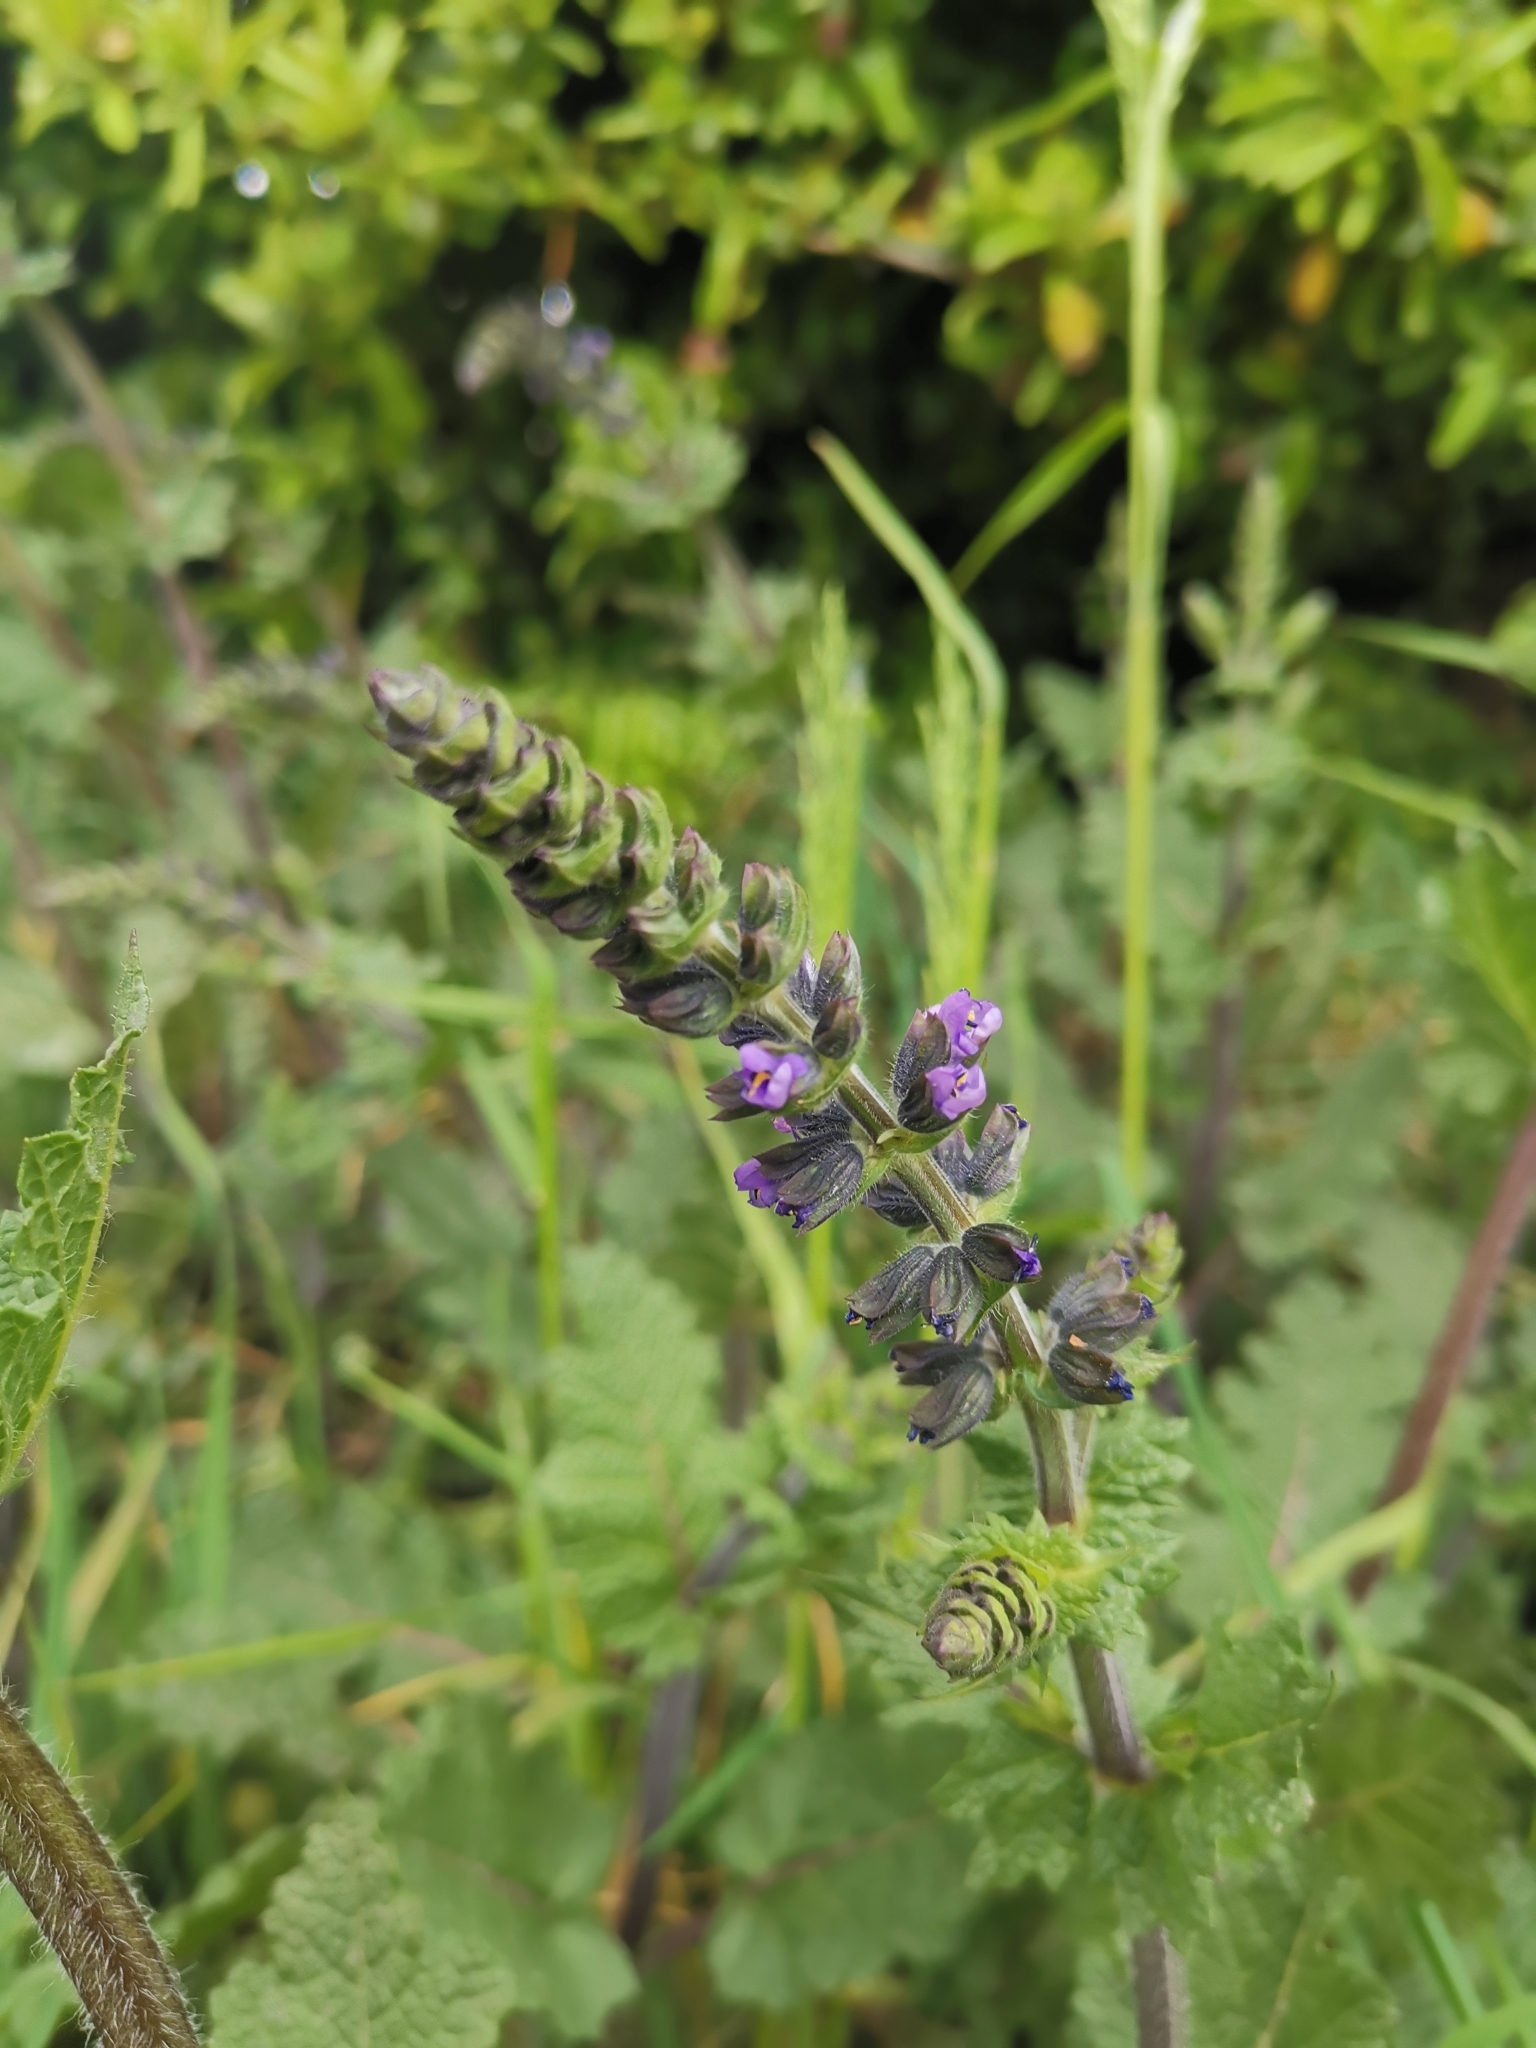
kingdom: Plantae
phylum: Tracheophyta
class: Magnoliopsida
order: Lamiales
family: Lamiaceae
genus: Salvia
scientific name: Salvia verbenaca
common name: Wild clary
